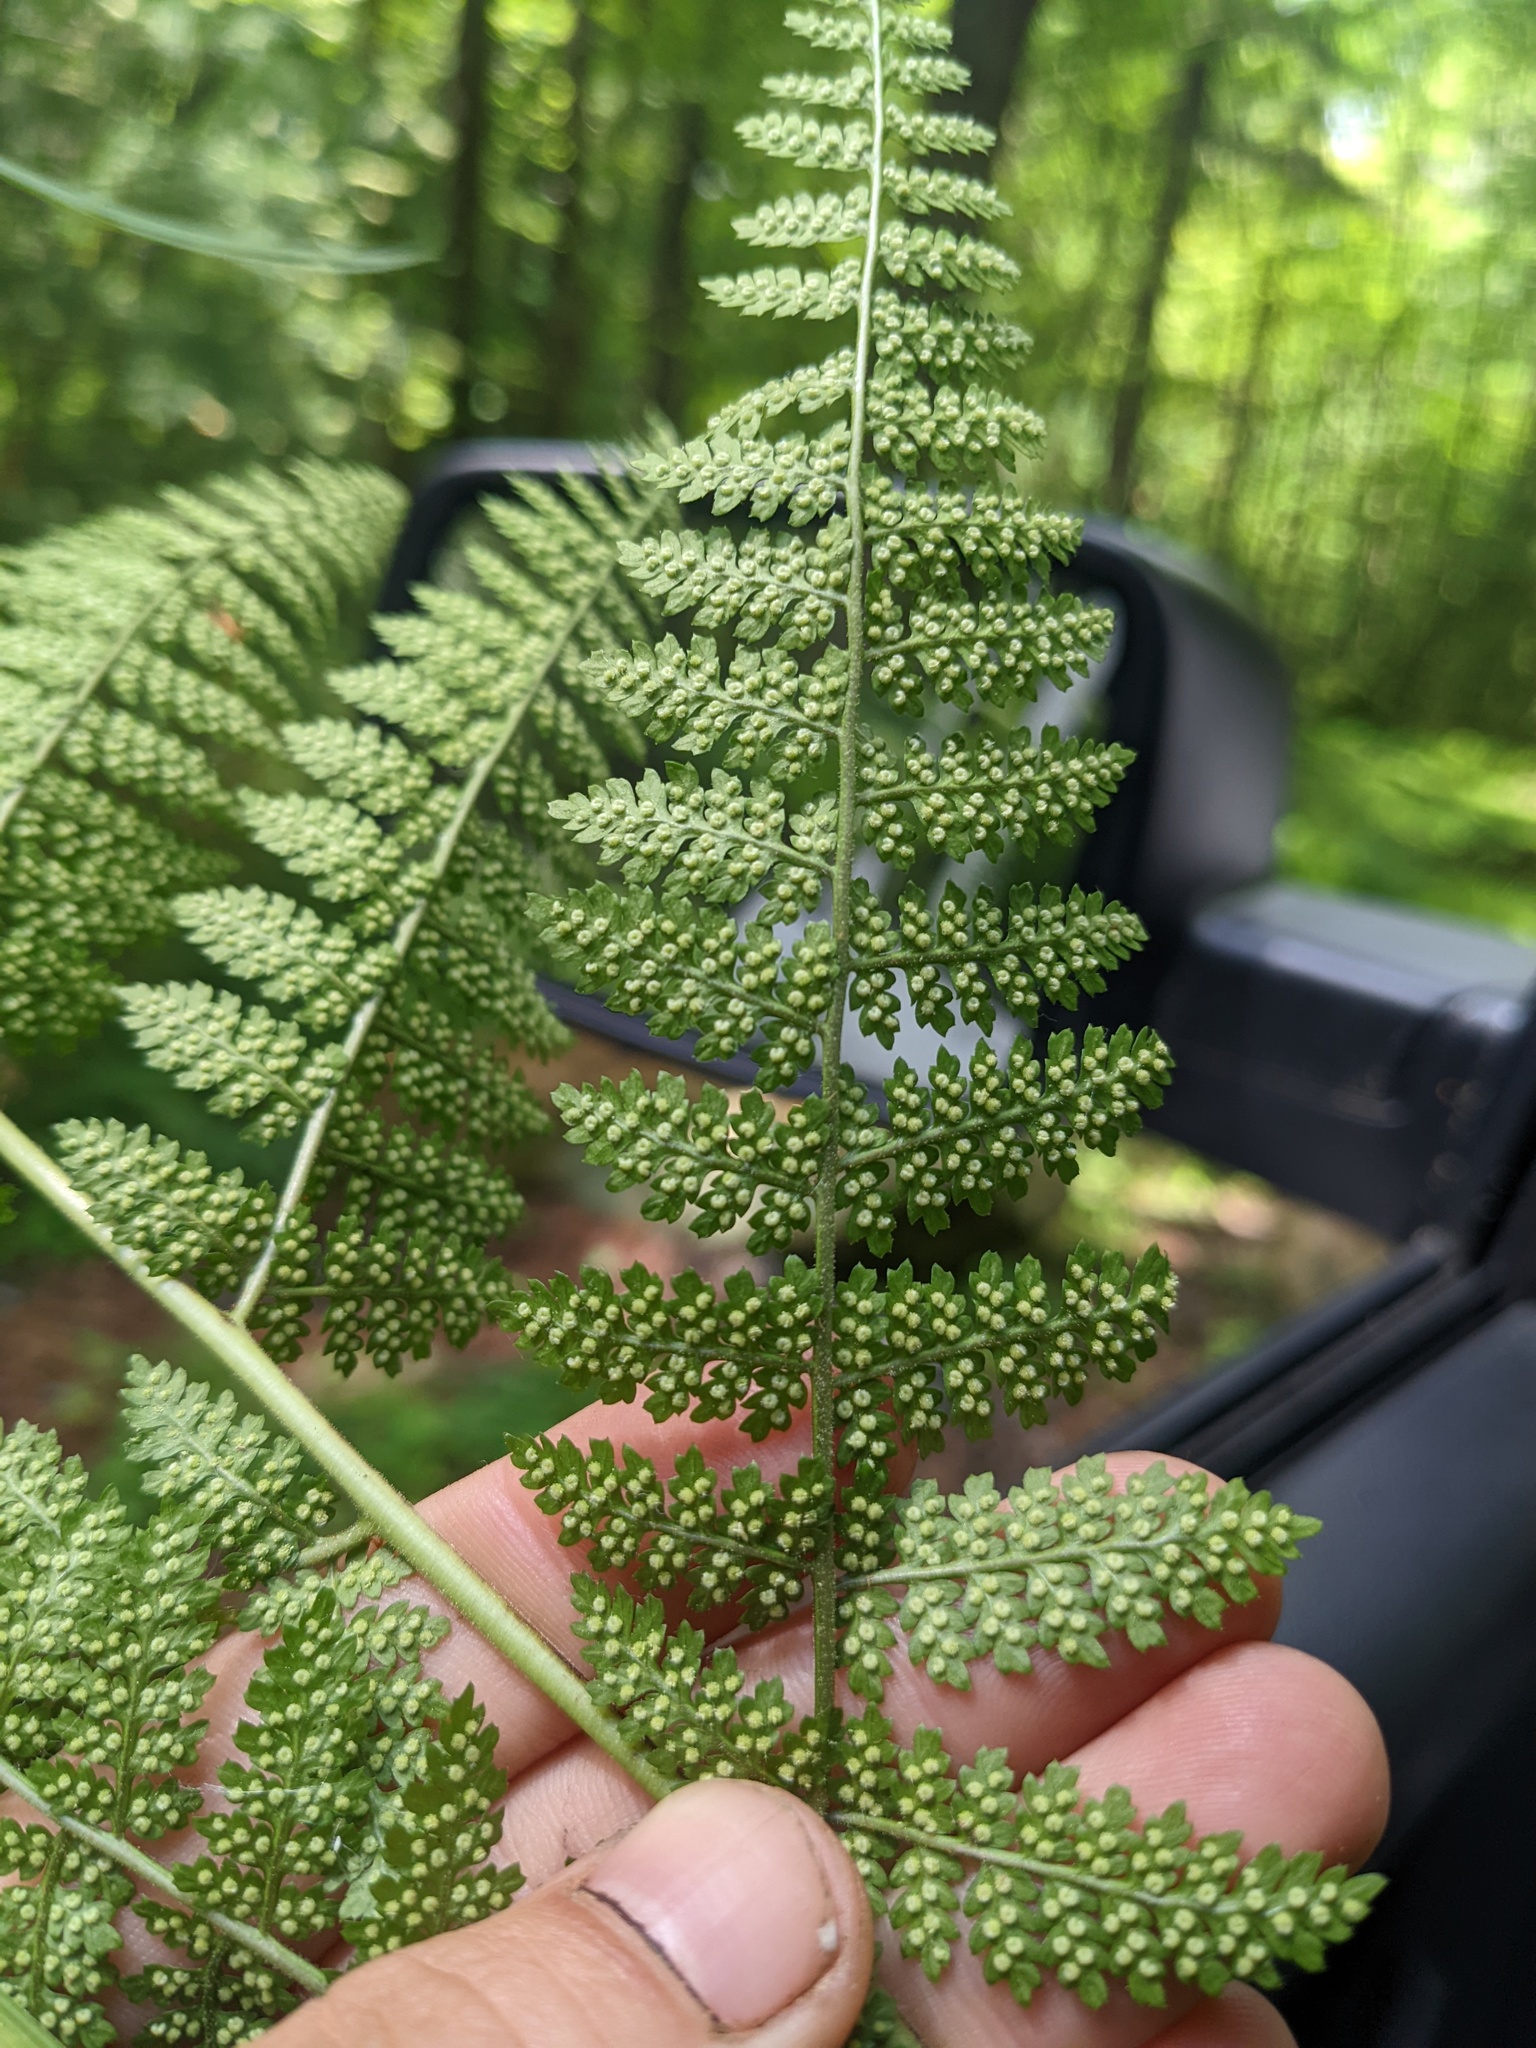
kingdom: Plantae
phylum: Tracheophyta
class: Polypodiopsida
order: Polypodiales
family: Dryopteridaceae
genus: Dryopteris
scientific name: Dryopteris intermedia
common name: Evergreen wood fern
